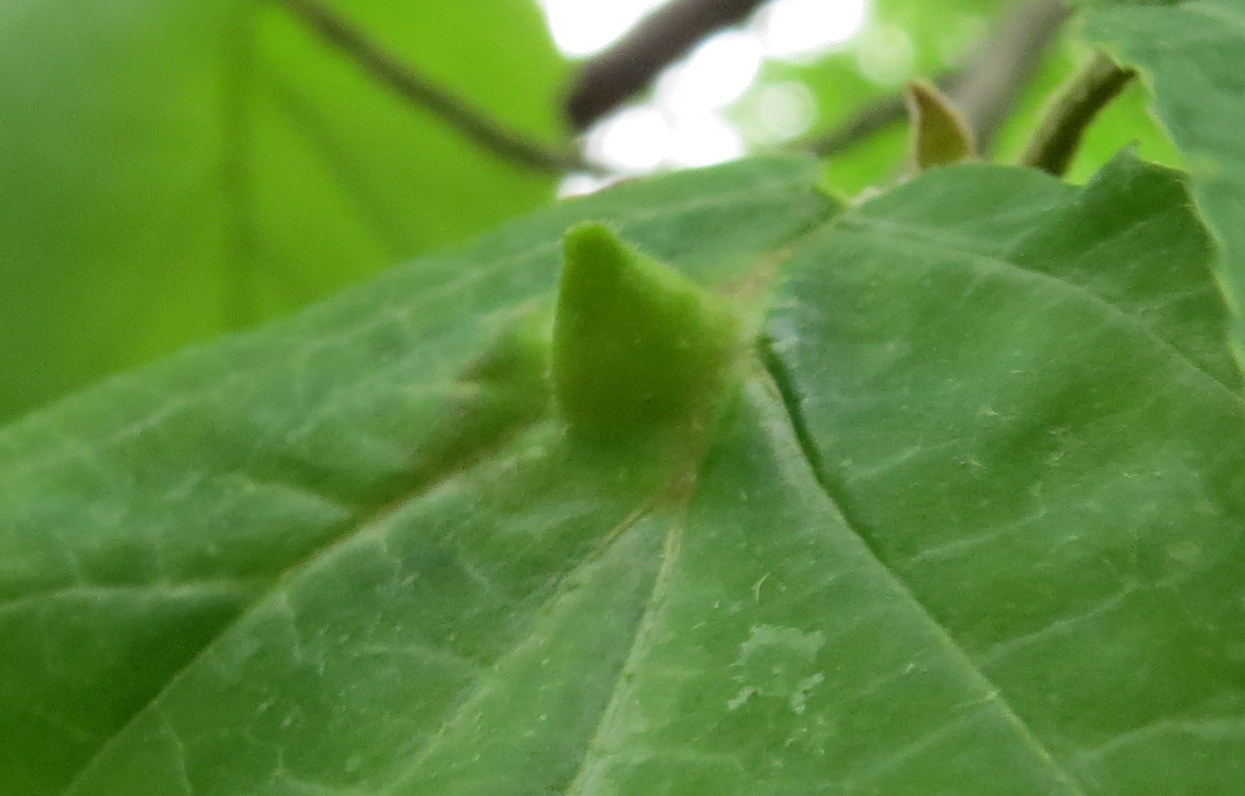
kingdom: Animalia
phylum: Arthropoda
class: Insecta
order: Hemiptera
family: Aphididae
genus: Hormaphis
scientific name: Hormaphis hamamelidis
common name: Witch-hazel cone gall aphid
